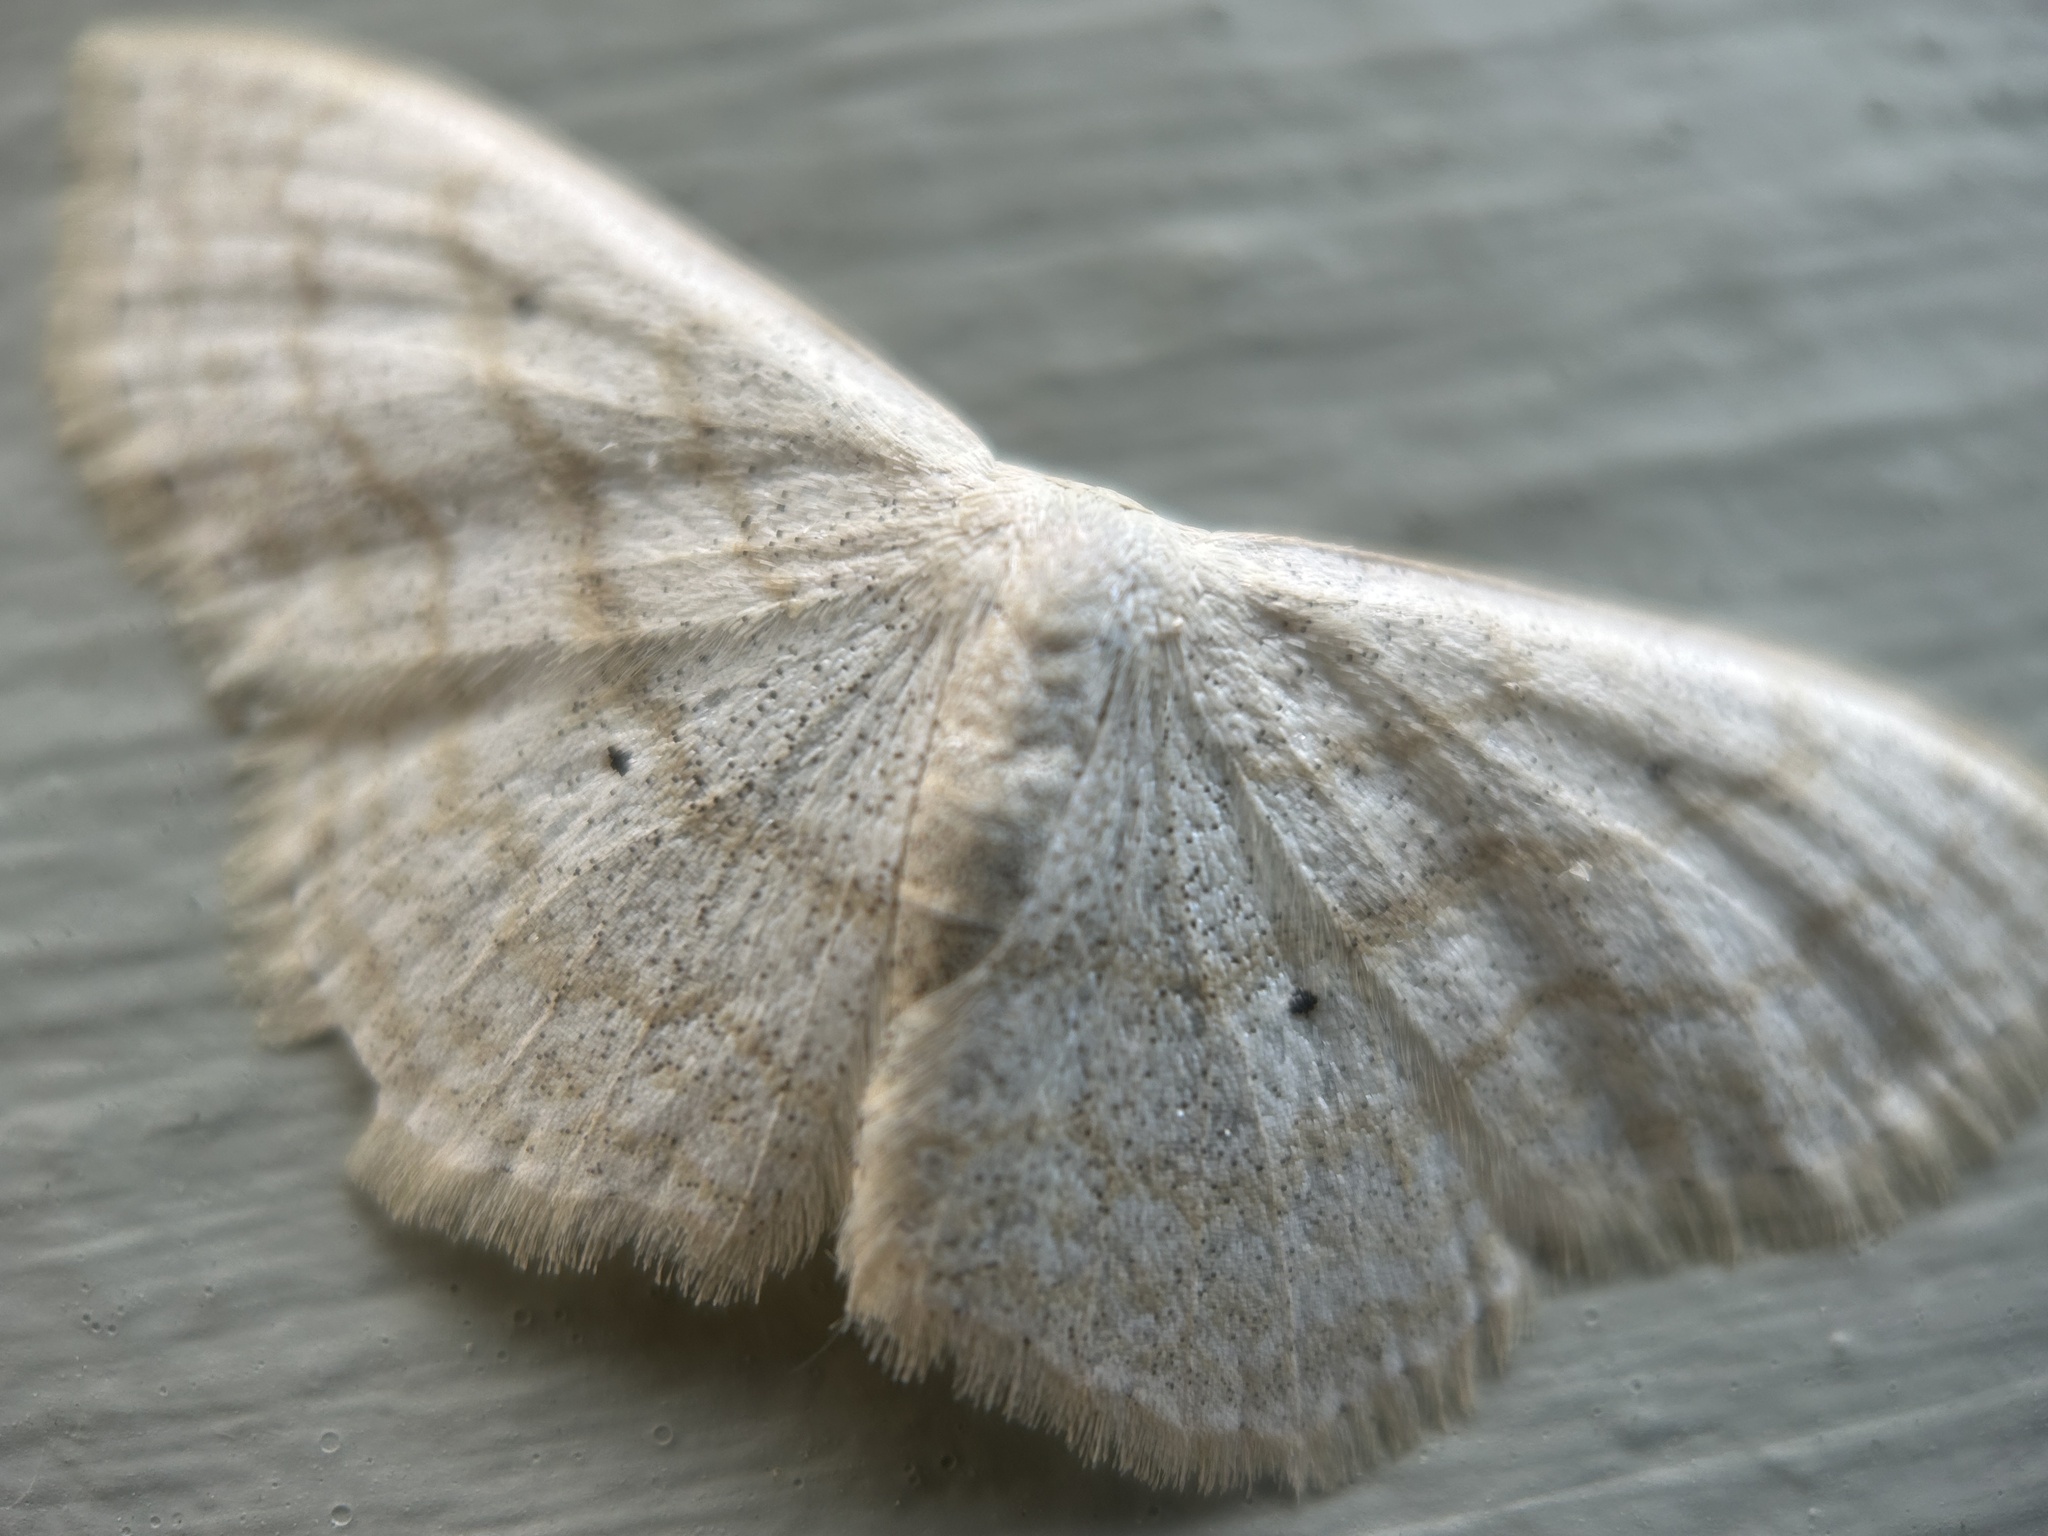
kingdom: Animalia
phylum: Arthropoda
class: Insecta
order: Lepidoptera
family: Geometridae
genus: Scopula
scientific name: Scopula limboundata
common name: Large lace border
